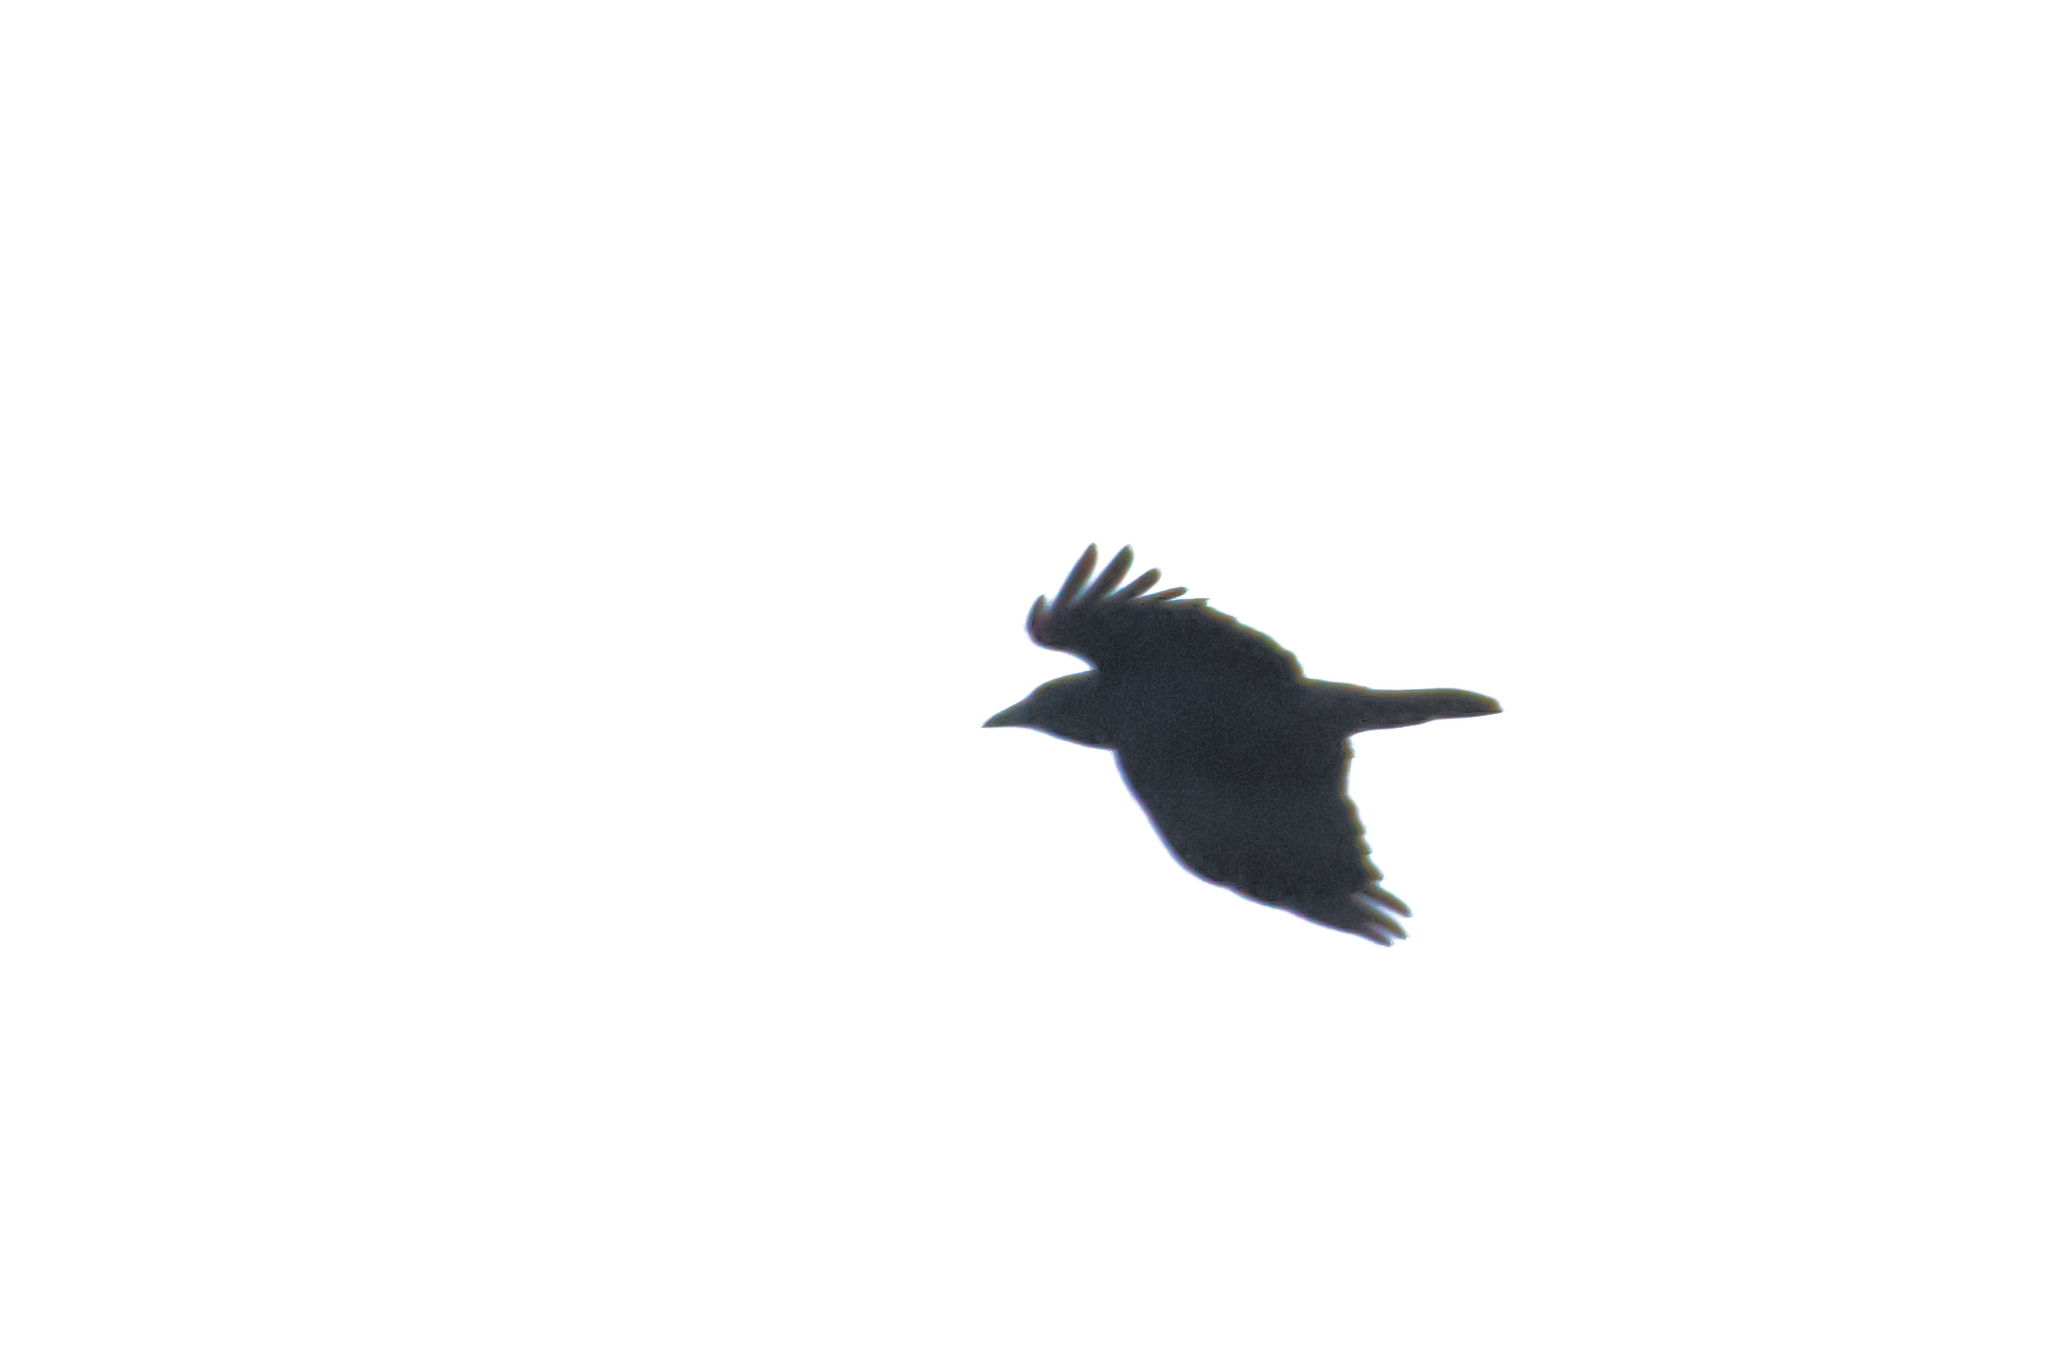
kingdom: Animalia
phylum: Chordata
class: Aves
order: Passeriformes
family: Corvidae
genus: Corvus
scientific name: Corvus corone
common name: Carrion crow
